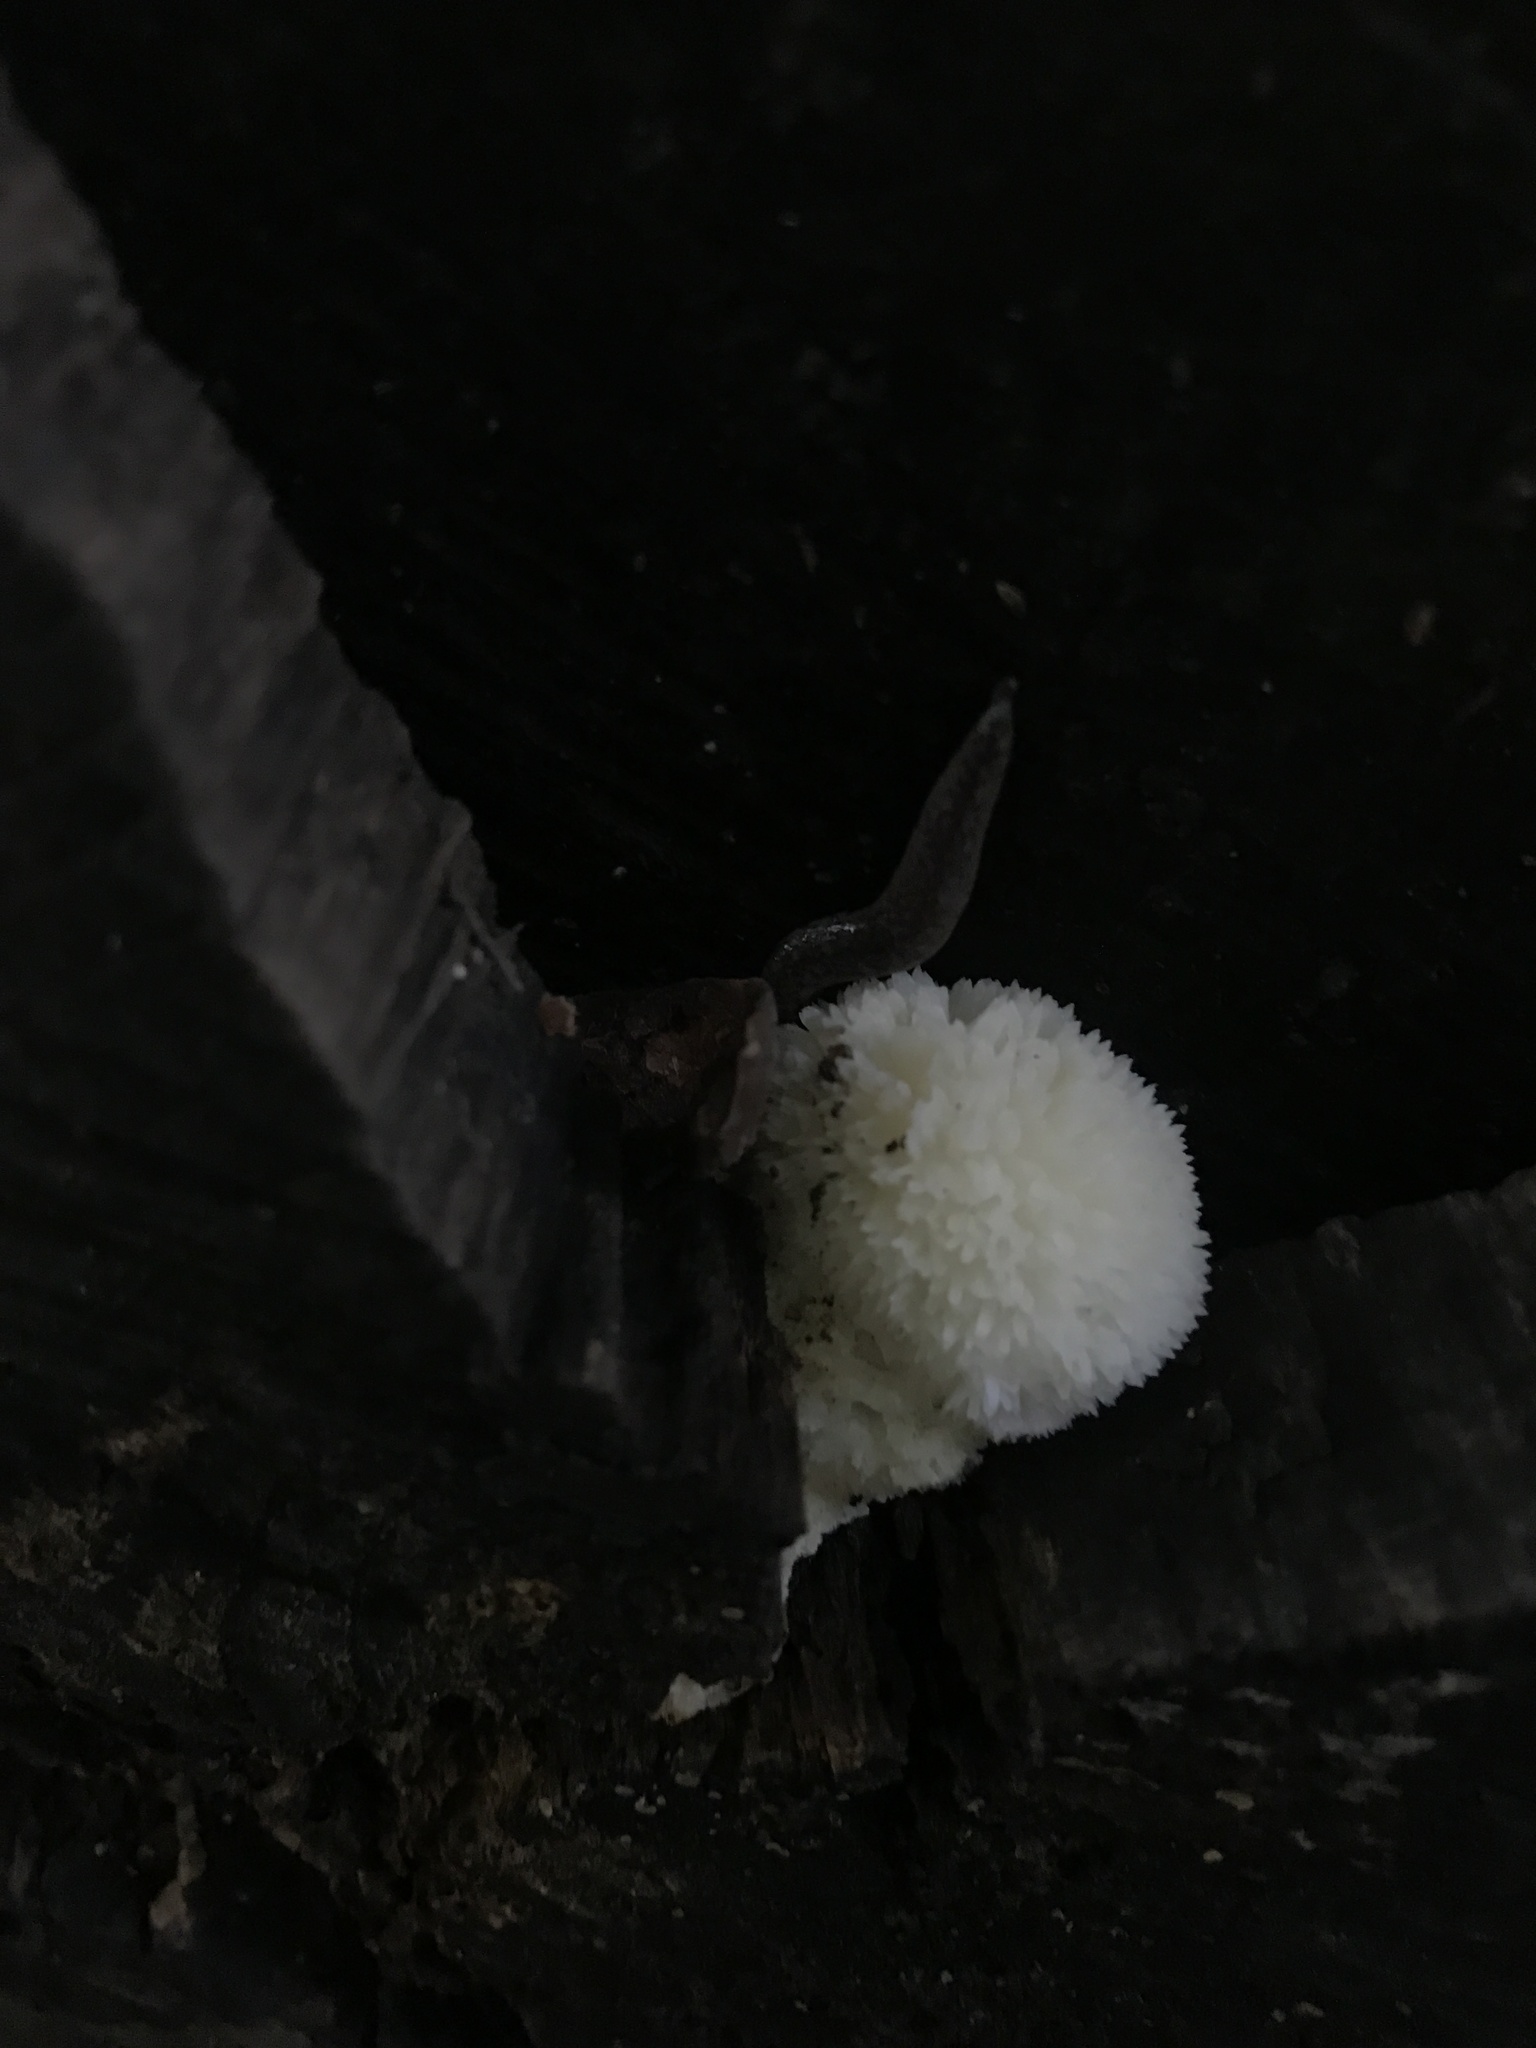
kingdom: Fungi
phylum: Basidiomycota
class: Agaricomycetes
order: Russulales
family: Hericiaceae
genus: Hericium
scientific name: Hericium erinaceus
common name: Bearded tooth
